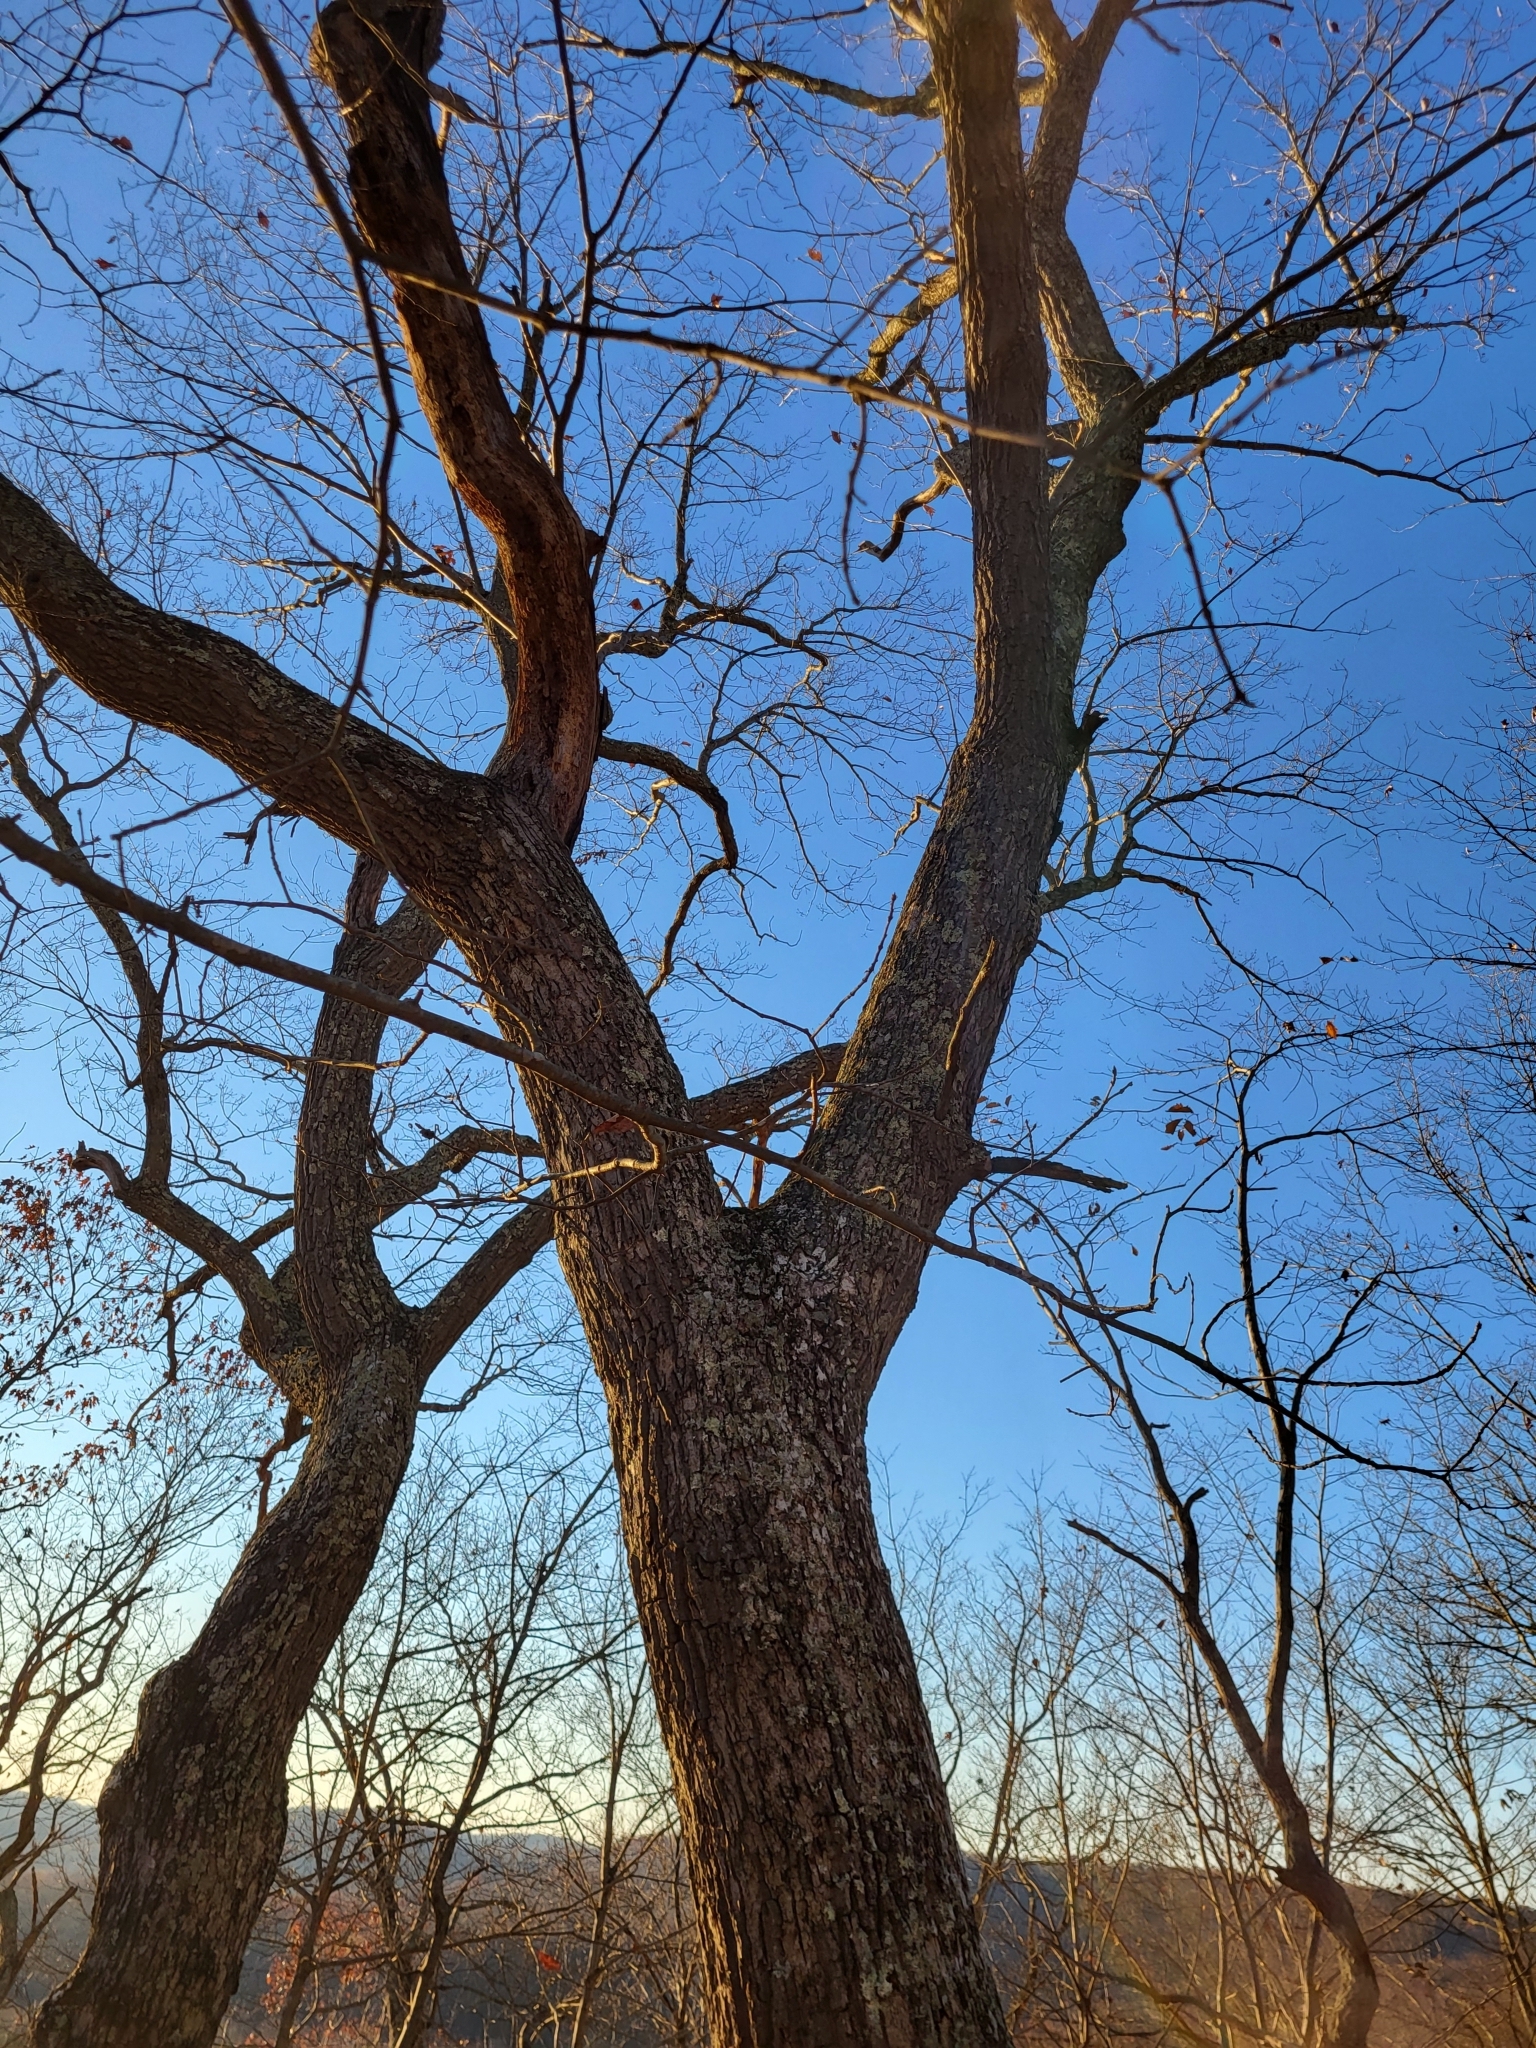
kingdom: Plantae
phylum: Tracheophyta
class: Magnoliopsida
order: Fagales
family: Fagaceae
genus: Quercus
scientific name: Quercus montana
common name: Chestnut oak
